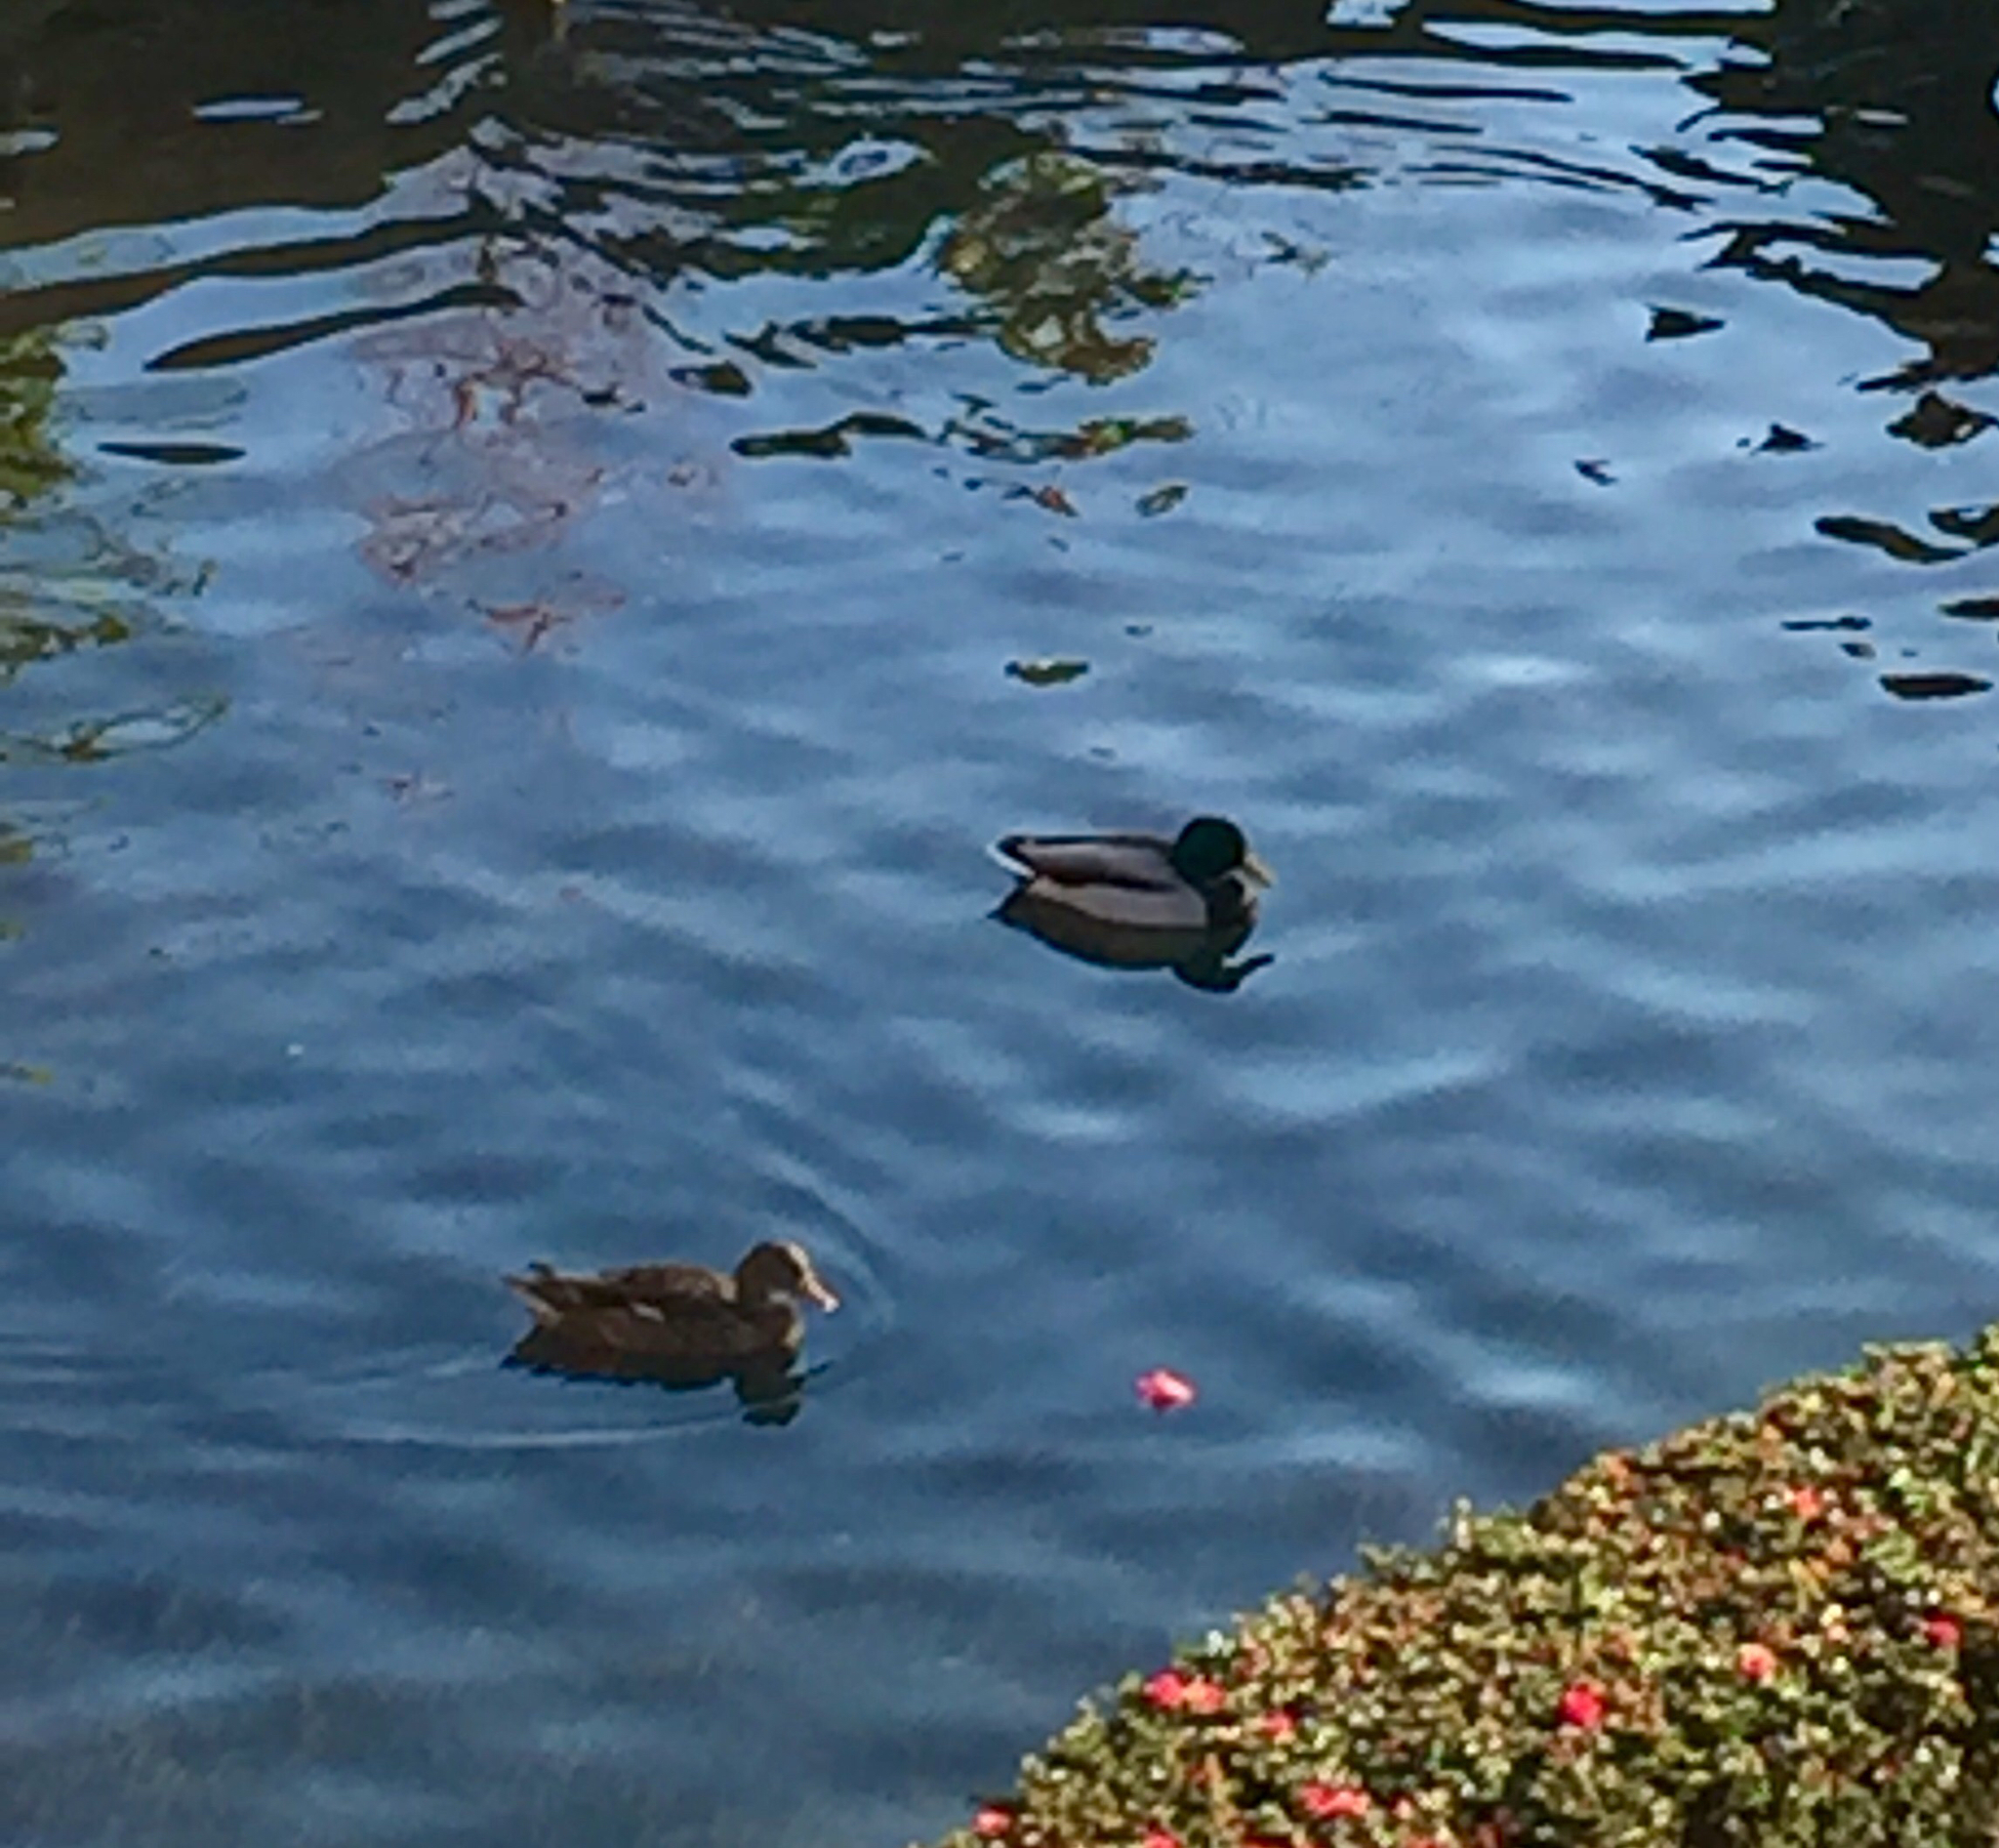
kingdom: Animalia
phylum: Chordata
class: Aves
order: Anseriformes
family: Anatidae
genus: Anas
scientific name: Anas platyrhynchos
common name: Mallard
